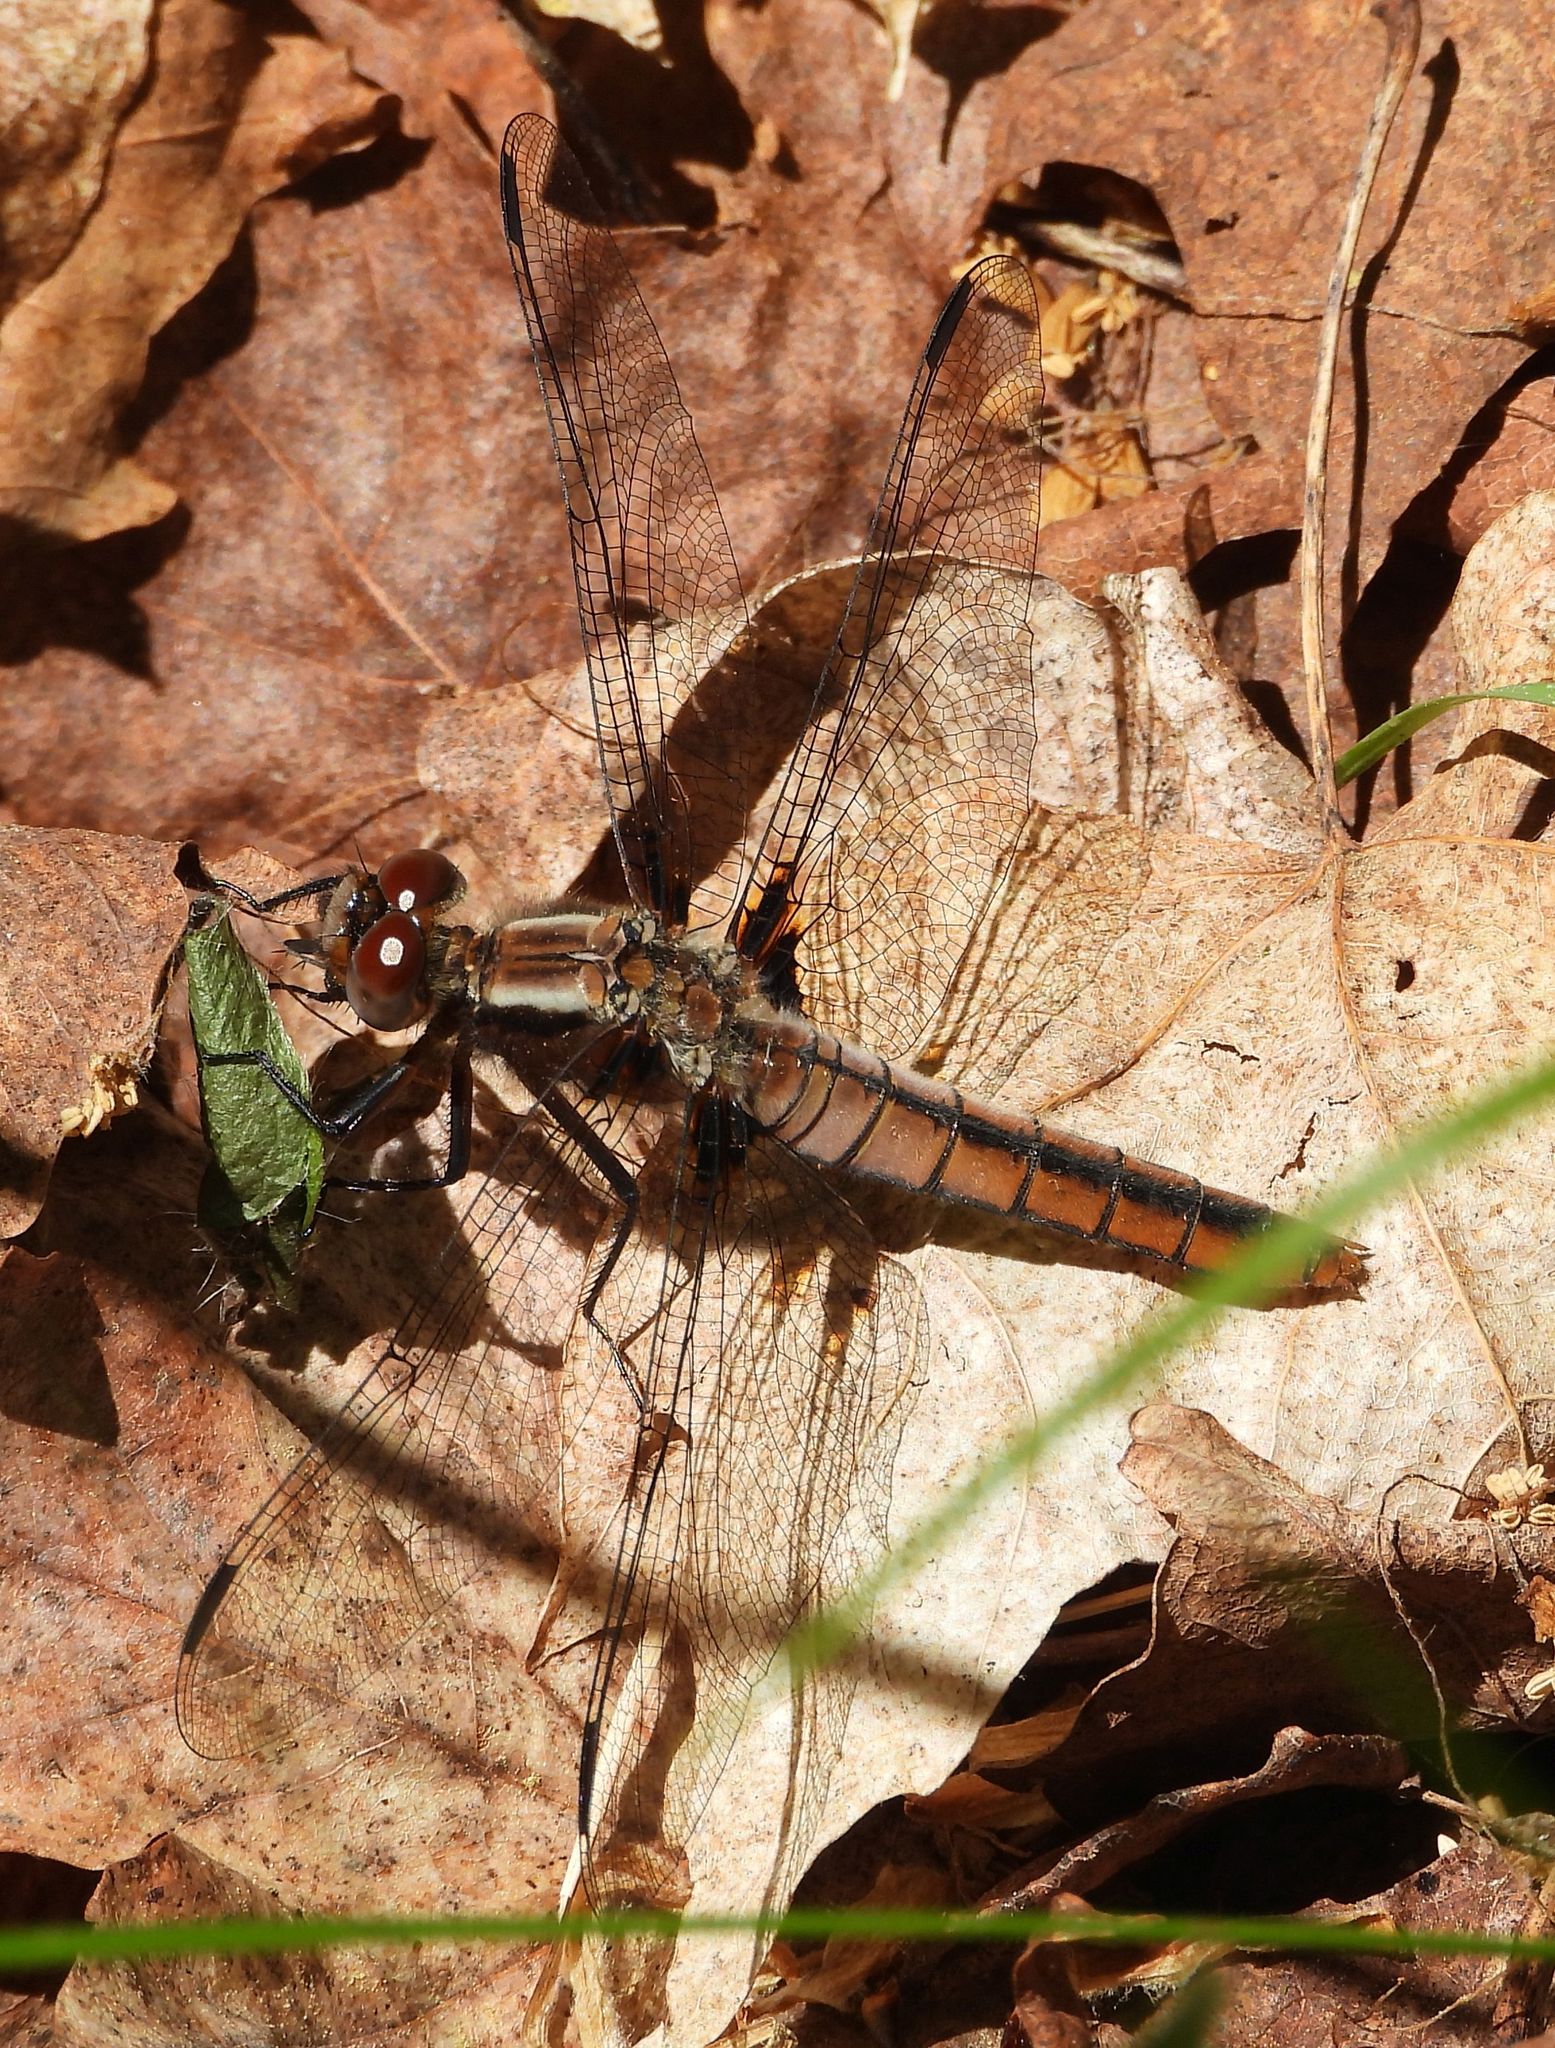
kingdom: Animalia
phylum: Arthropoda
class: Insecta
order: Odonata
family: Libellulidae
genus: Ladona
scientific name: Ladona julia
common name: Chalk-fronted corporal
